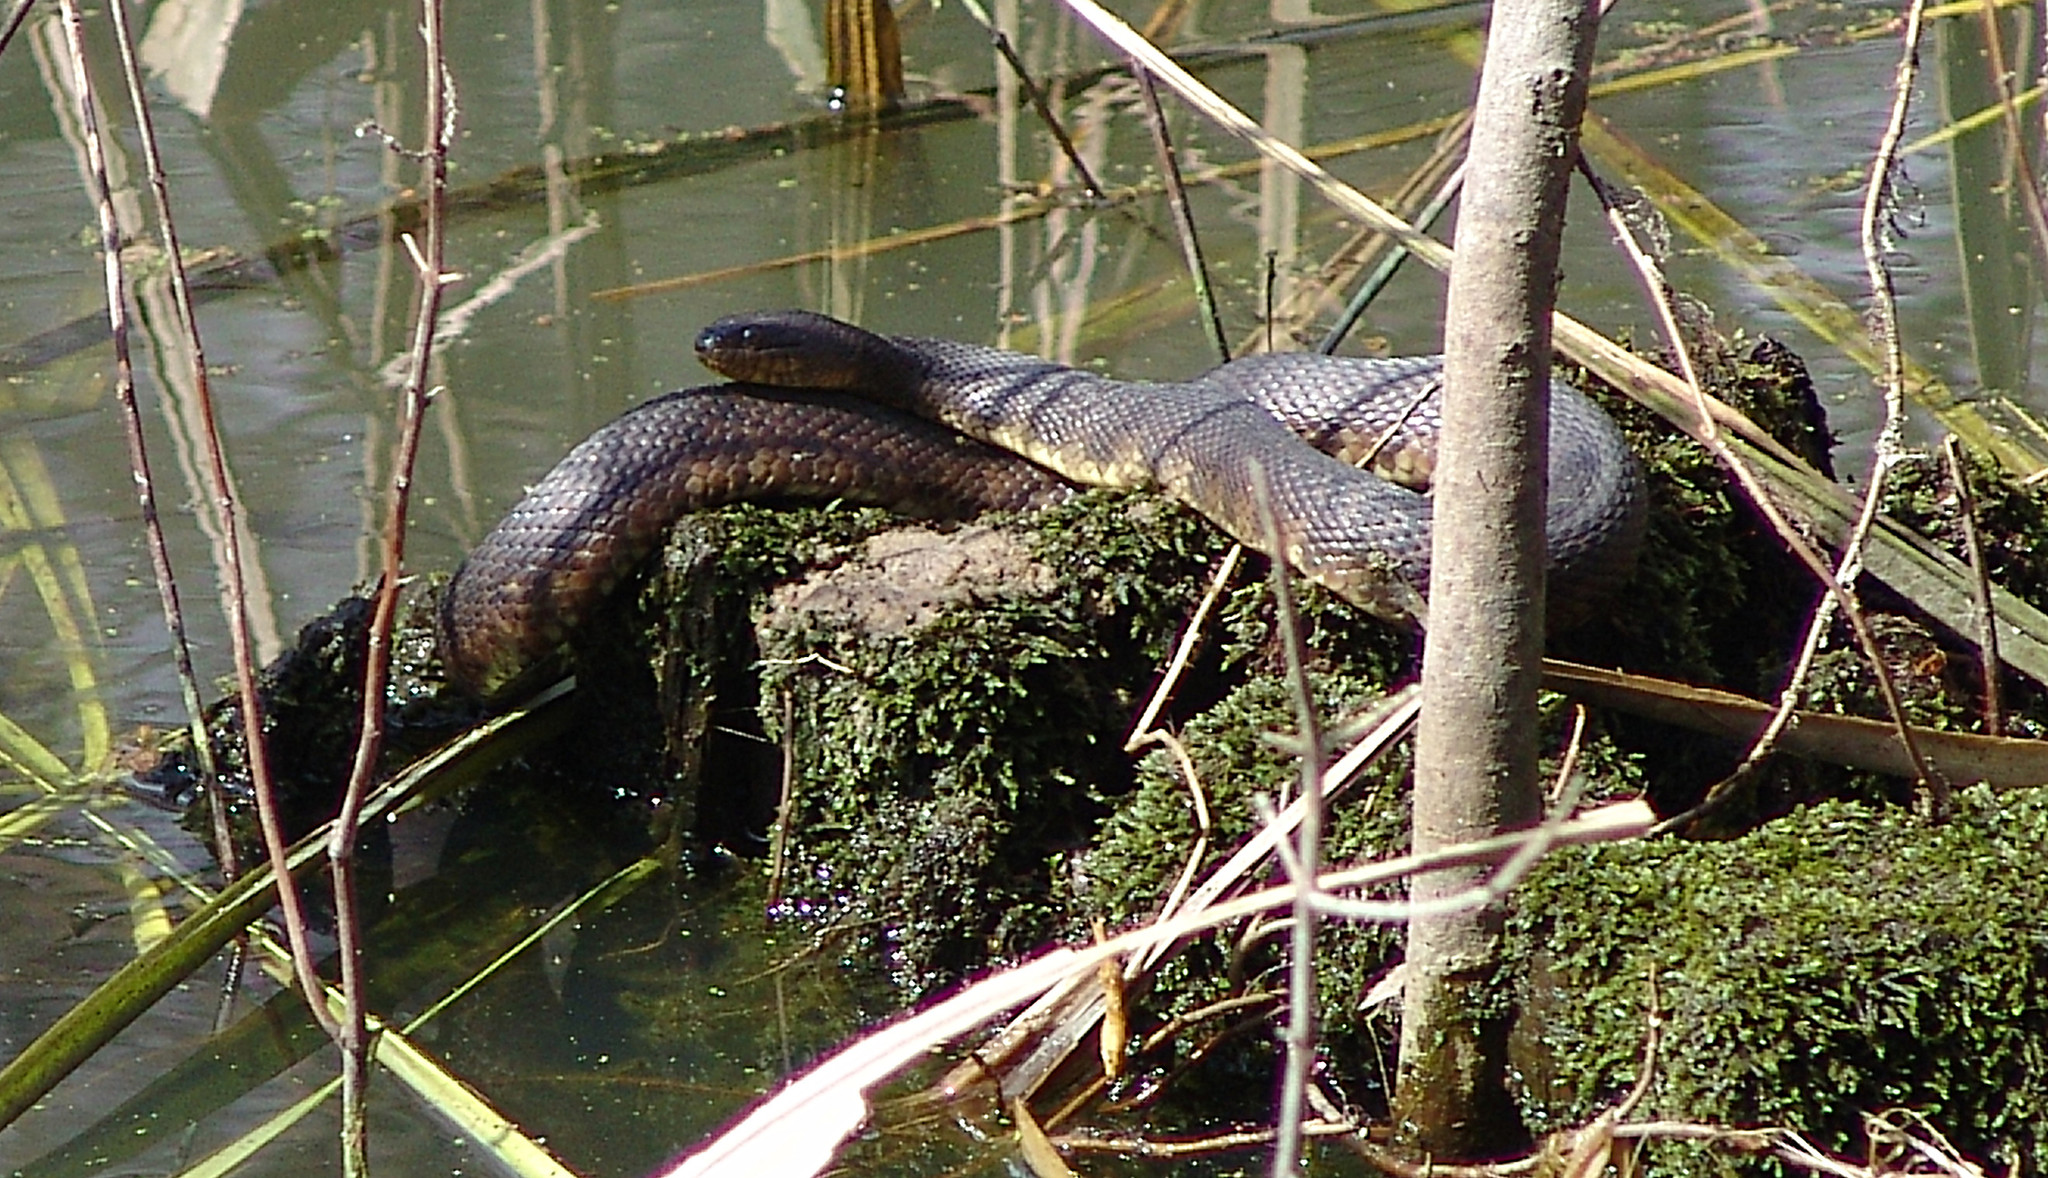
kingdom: Animalia
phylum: Chordata
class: Squamata
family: Colubridae
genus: Nerodia
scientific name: Nerodia cyclopion
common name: Mississippi green water snake
